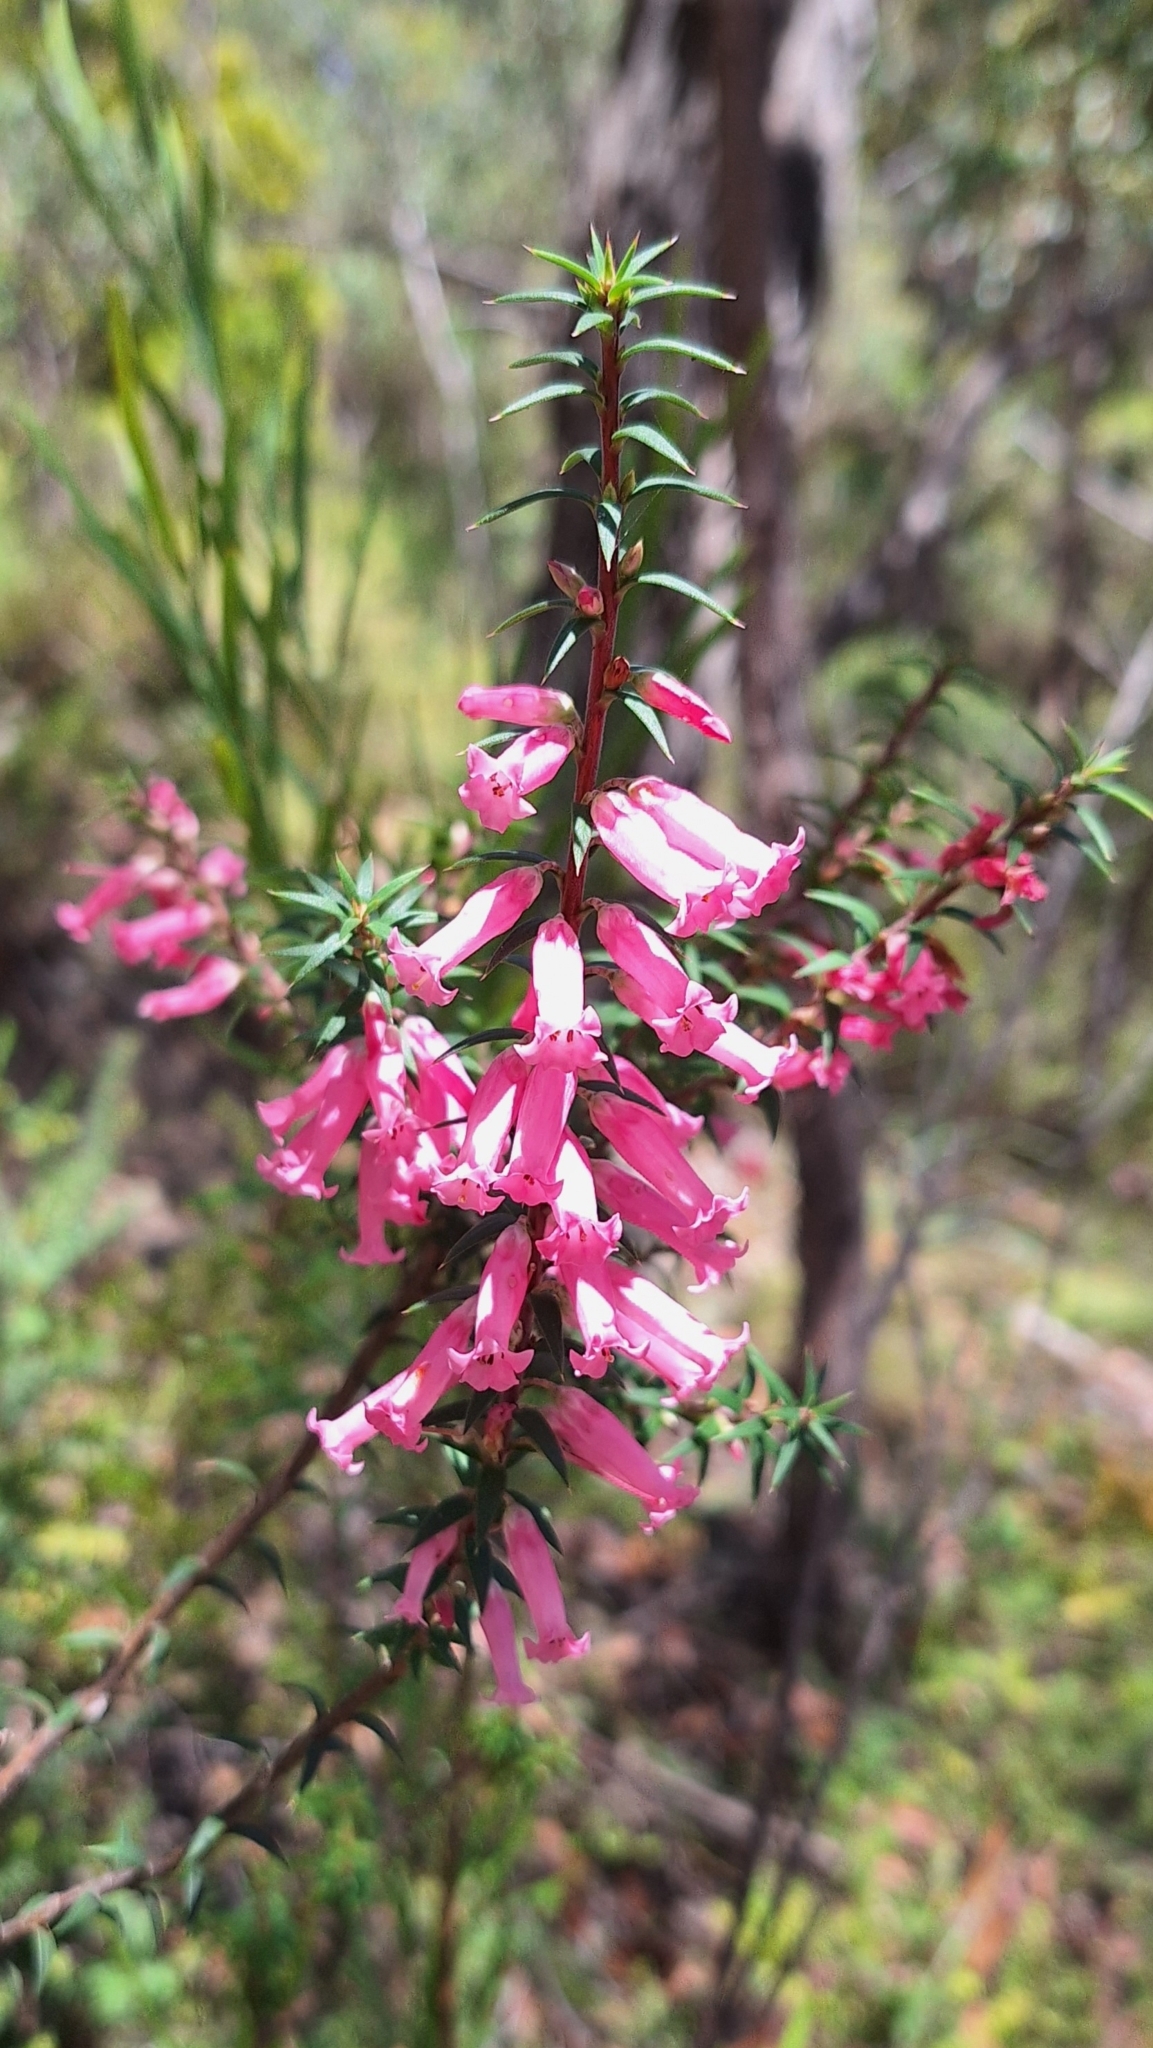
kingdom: Plantae
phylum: Tracheophyta
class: Magnoliopsida
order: Ericales
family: Ericaceae
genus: Epacris
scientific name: Epacris impressa
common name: Common-heath
